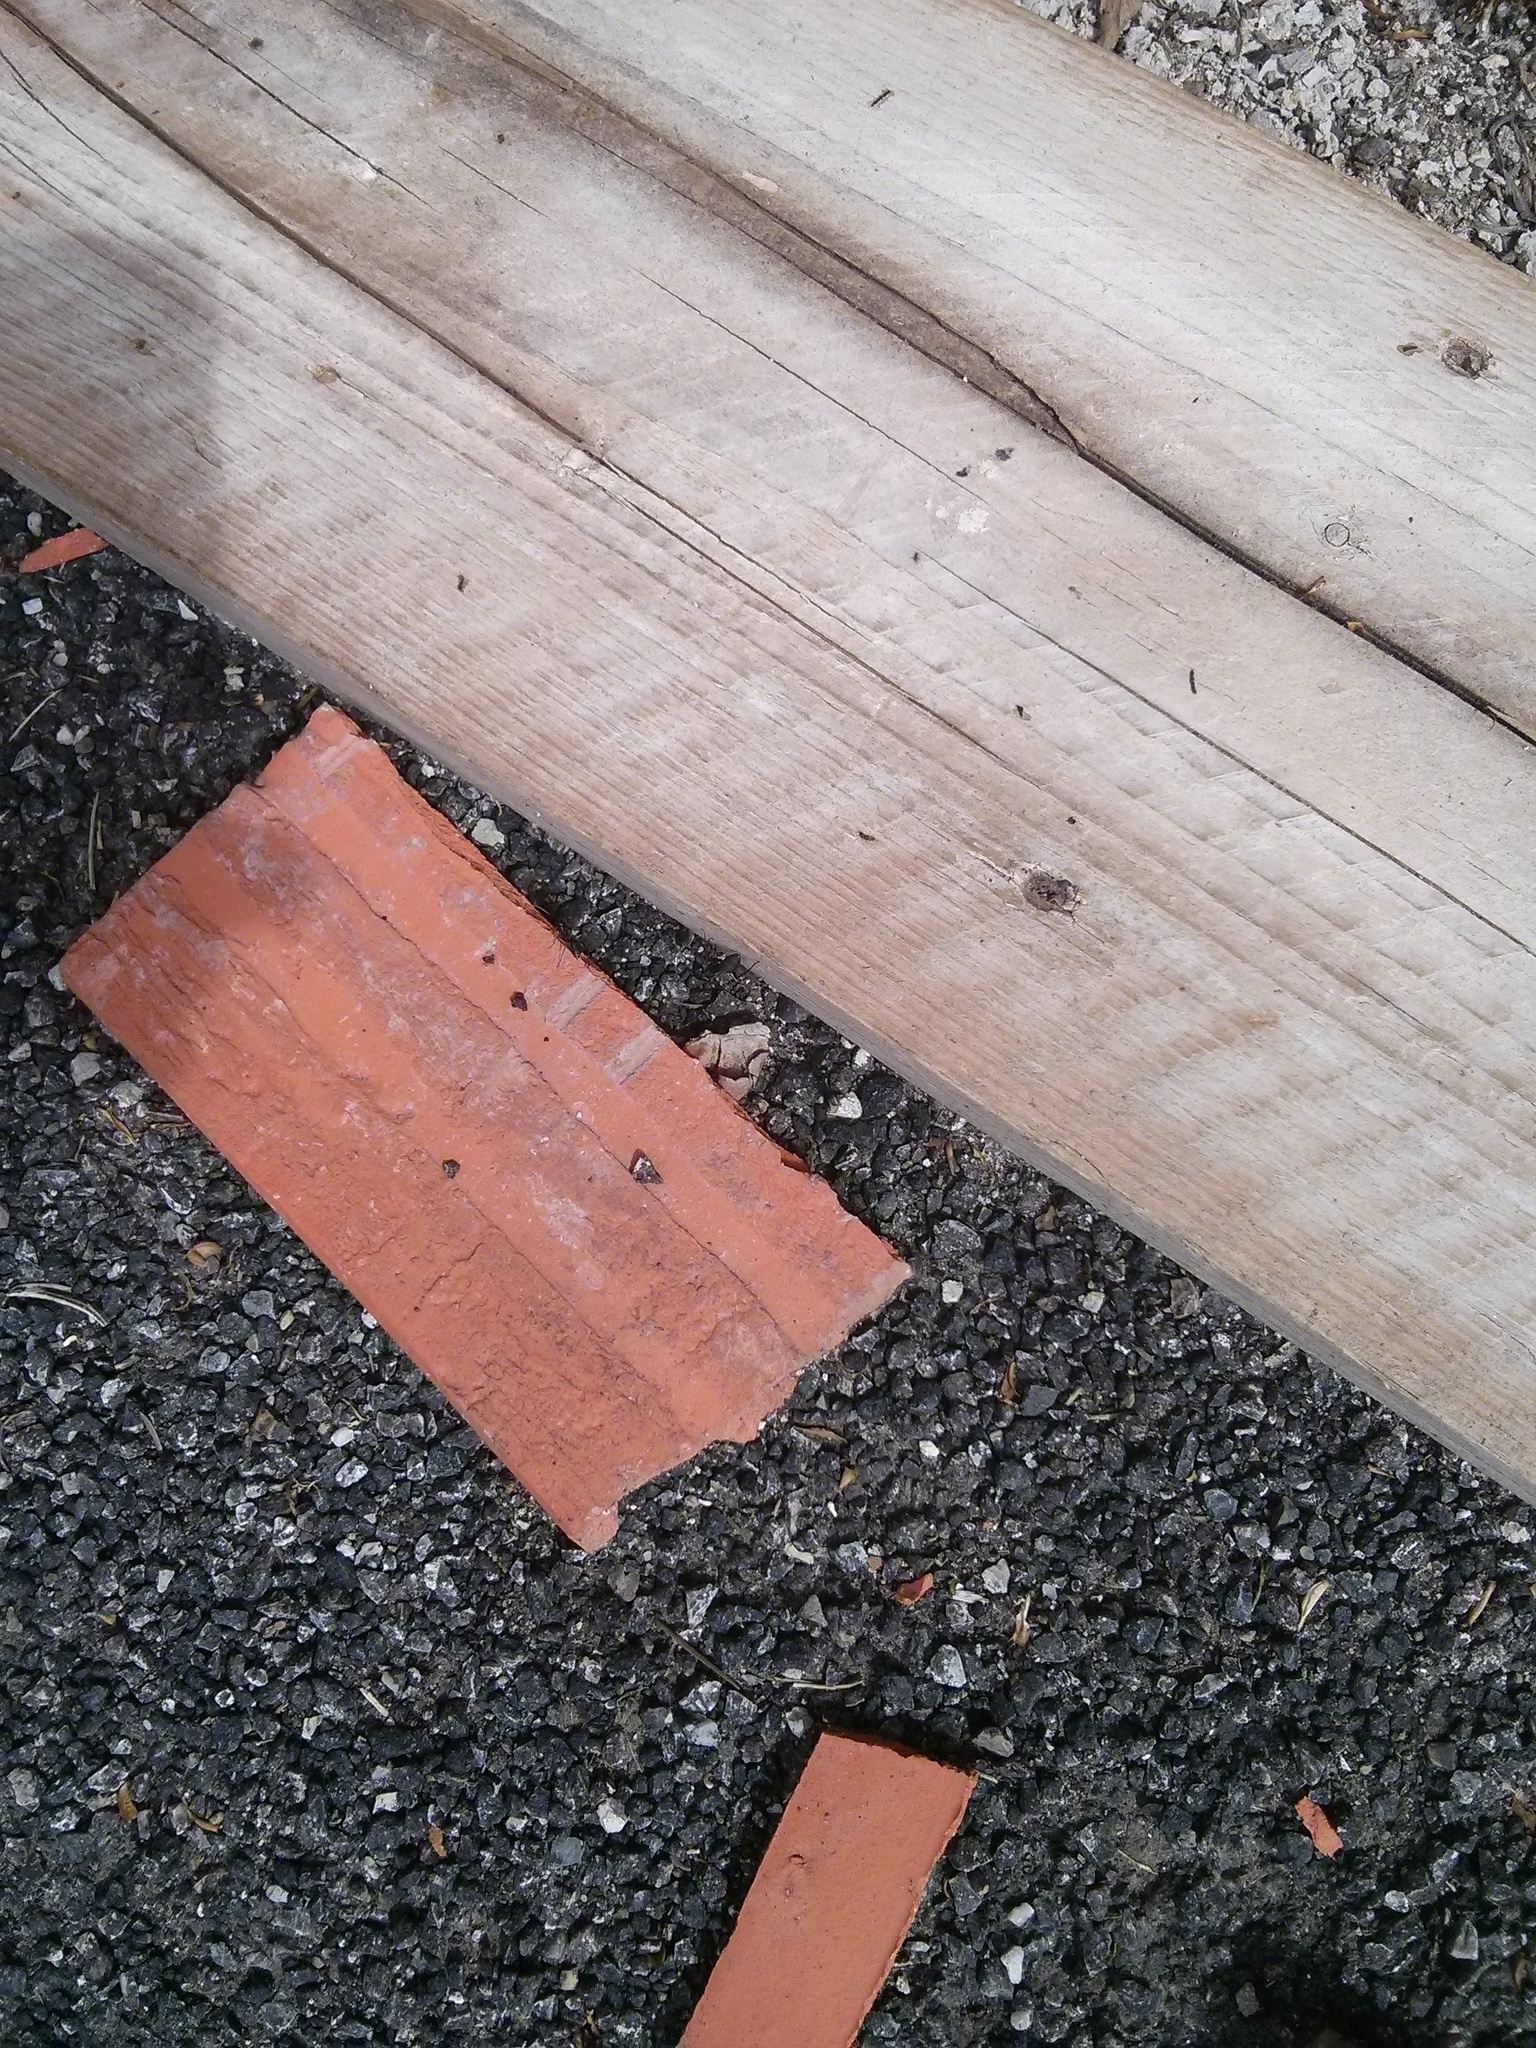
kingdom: Animalia
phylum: Arthropoda
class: Insecta
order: Hymenoptera
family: Formicidae
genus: Camponotus
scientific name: Camponotus vagus
